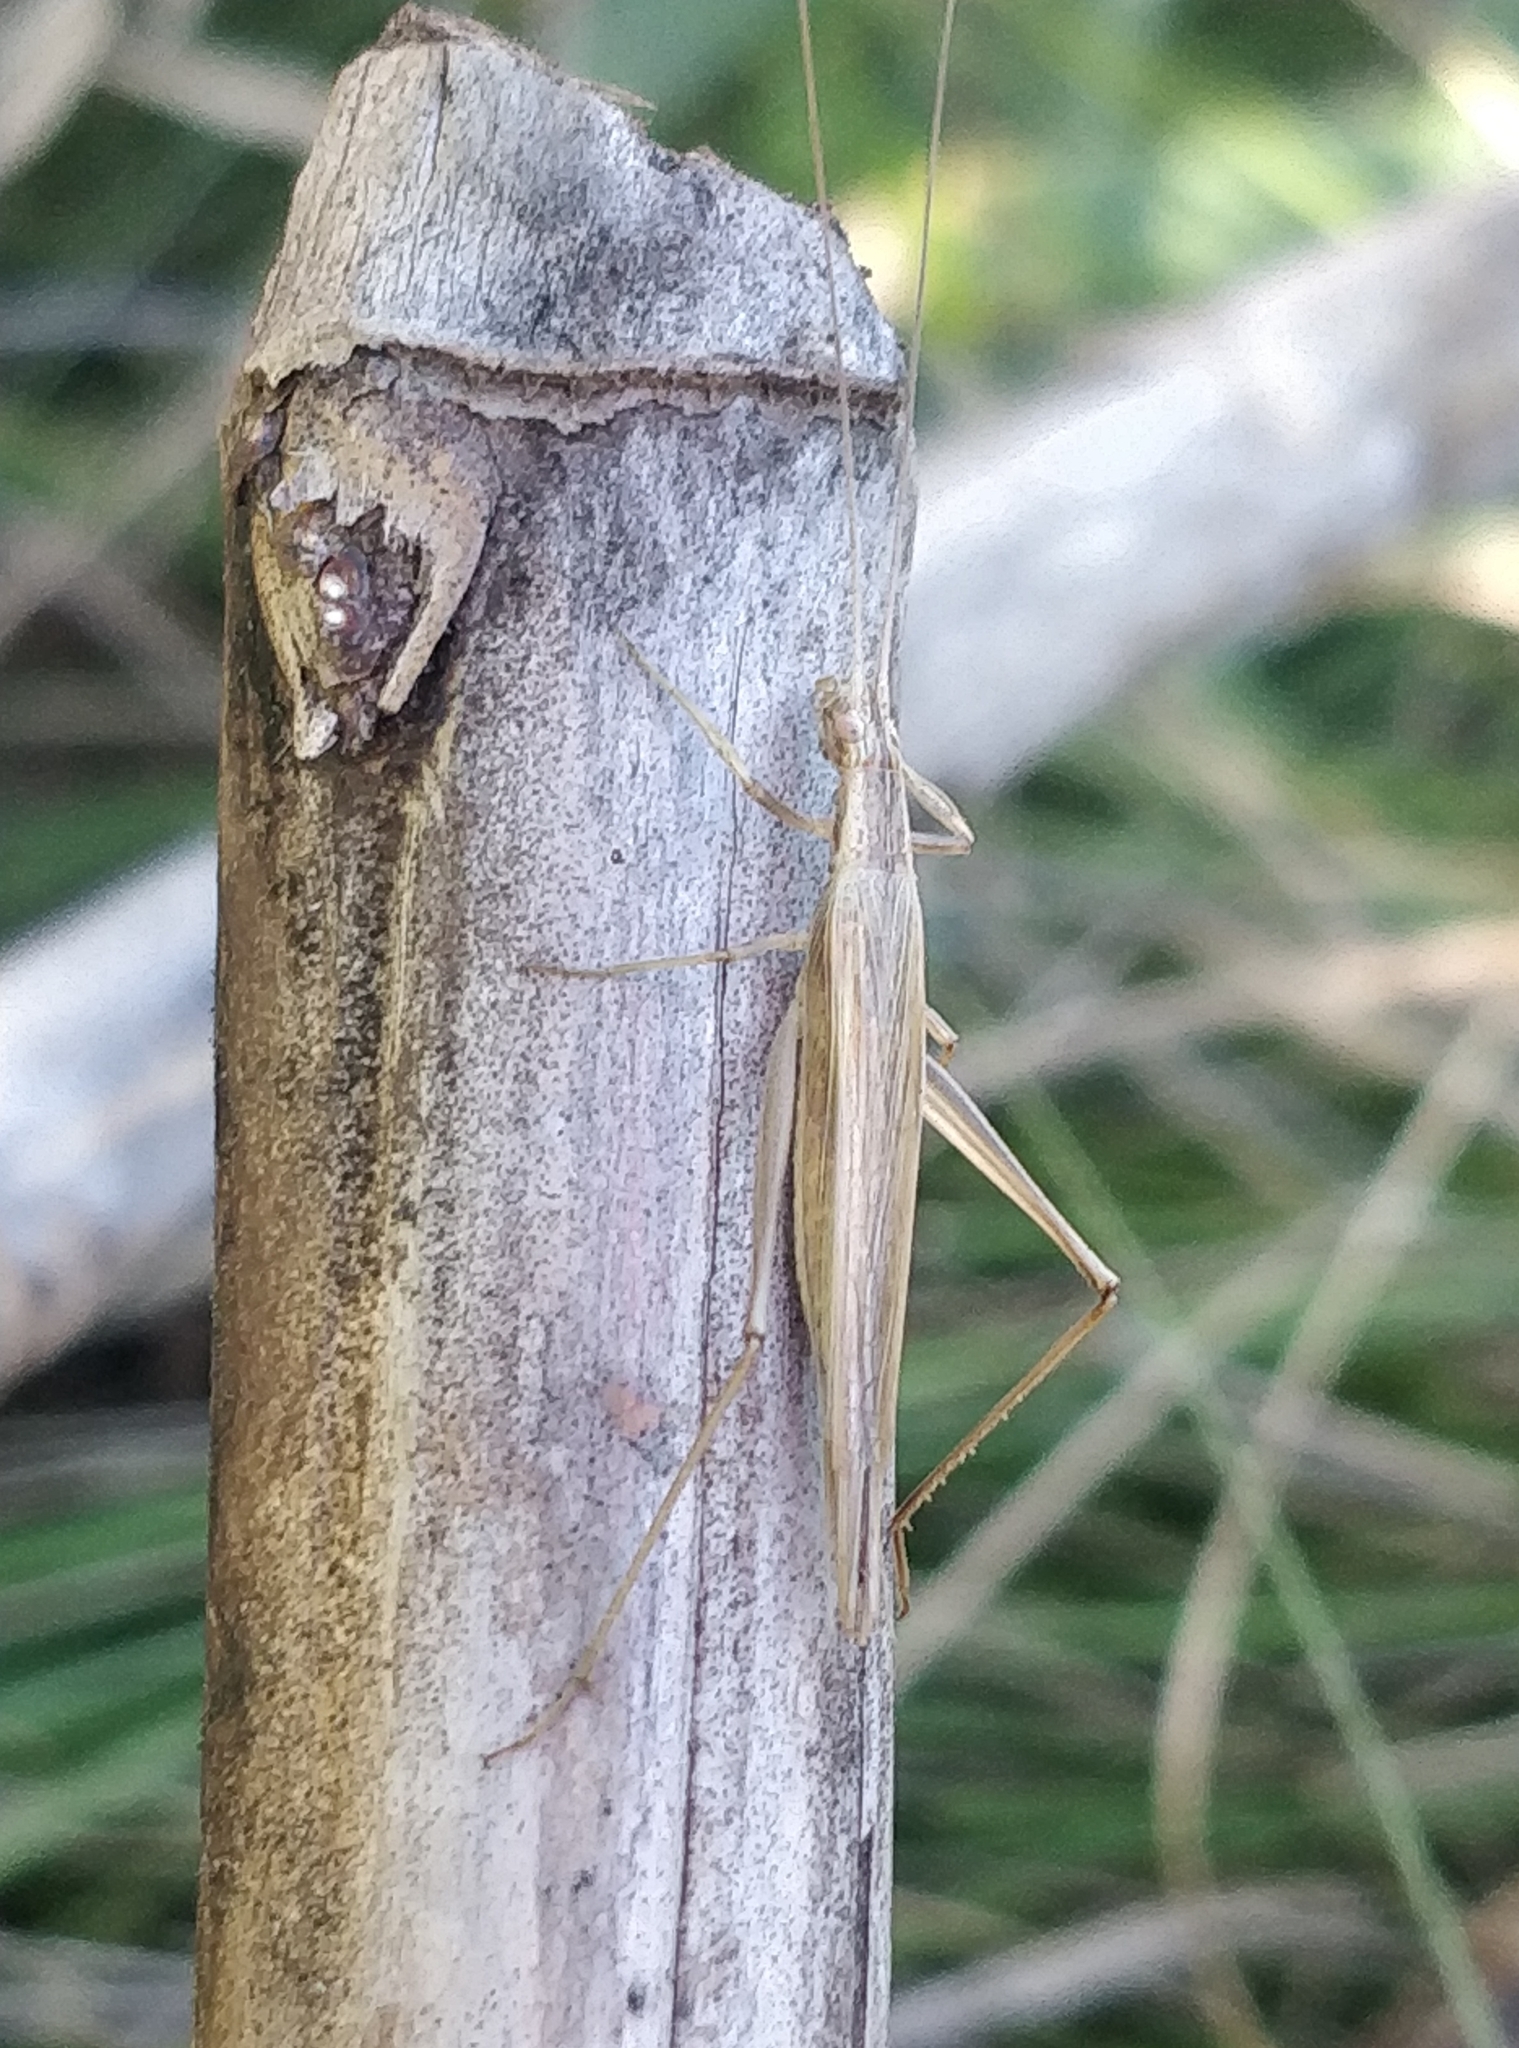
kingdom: Animalia
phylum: Arthropoda
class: Insecta
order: Orthoptera
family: Gryllidae
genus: Oecanthus
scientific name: Oecanthus dulcisonans
